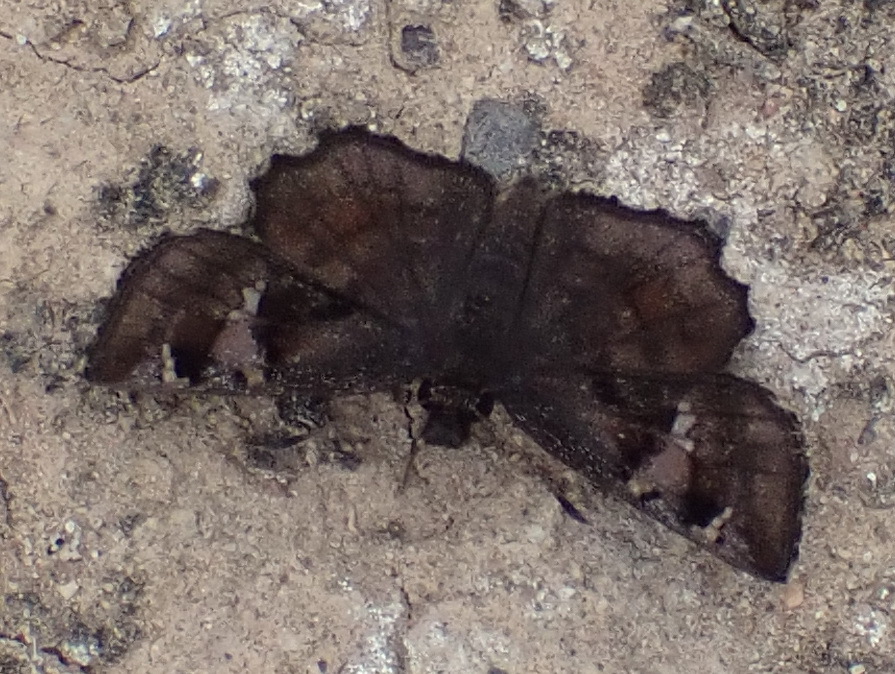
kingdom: Animalia
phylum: Arthropoda
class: Insecta
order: Lepidoptera
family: Hesperiidae
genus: Eretis
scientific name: Eretis umbra
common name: Small marbled elf
